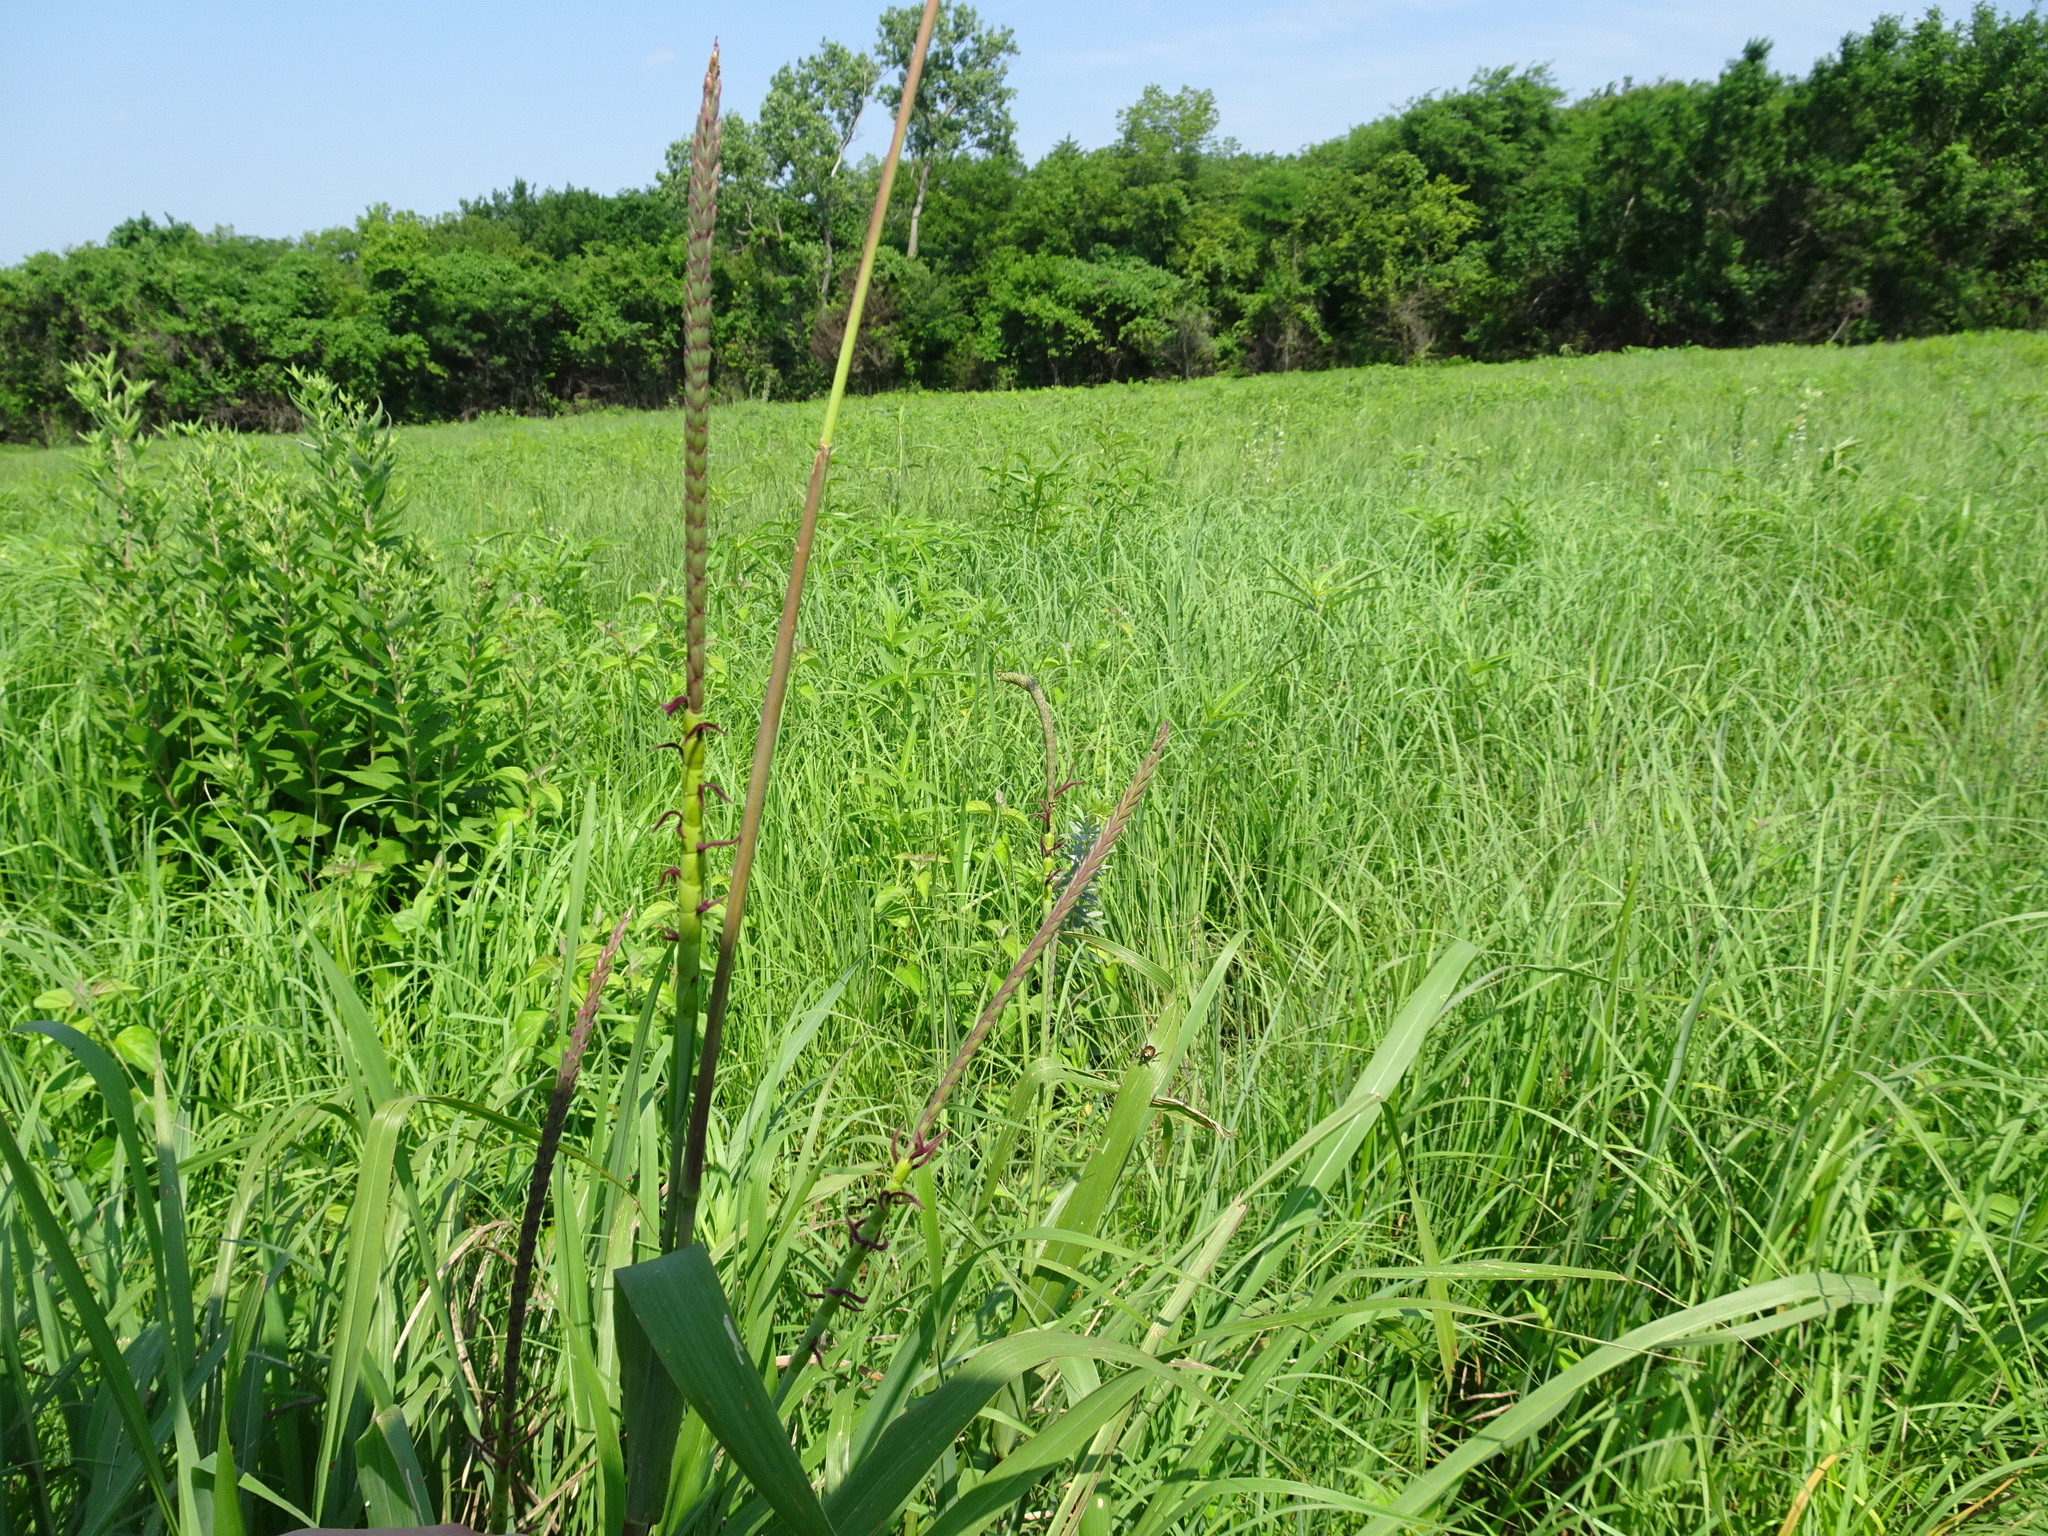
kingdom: Plantae
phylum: Tracheophyta
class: Liliopsida
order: Poales
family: Poaceae
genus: Tripsacum
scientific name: Tripsacum dactyloides
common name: Buffalo-grass
